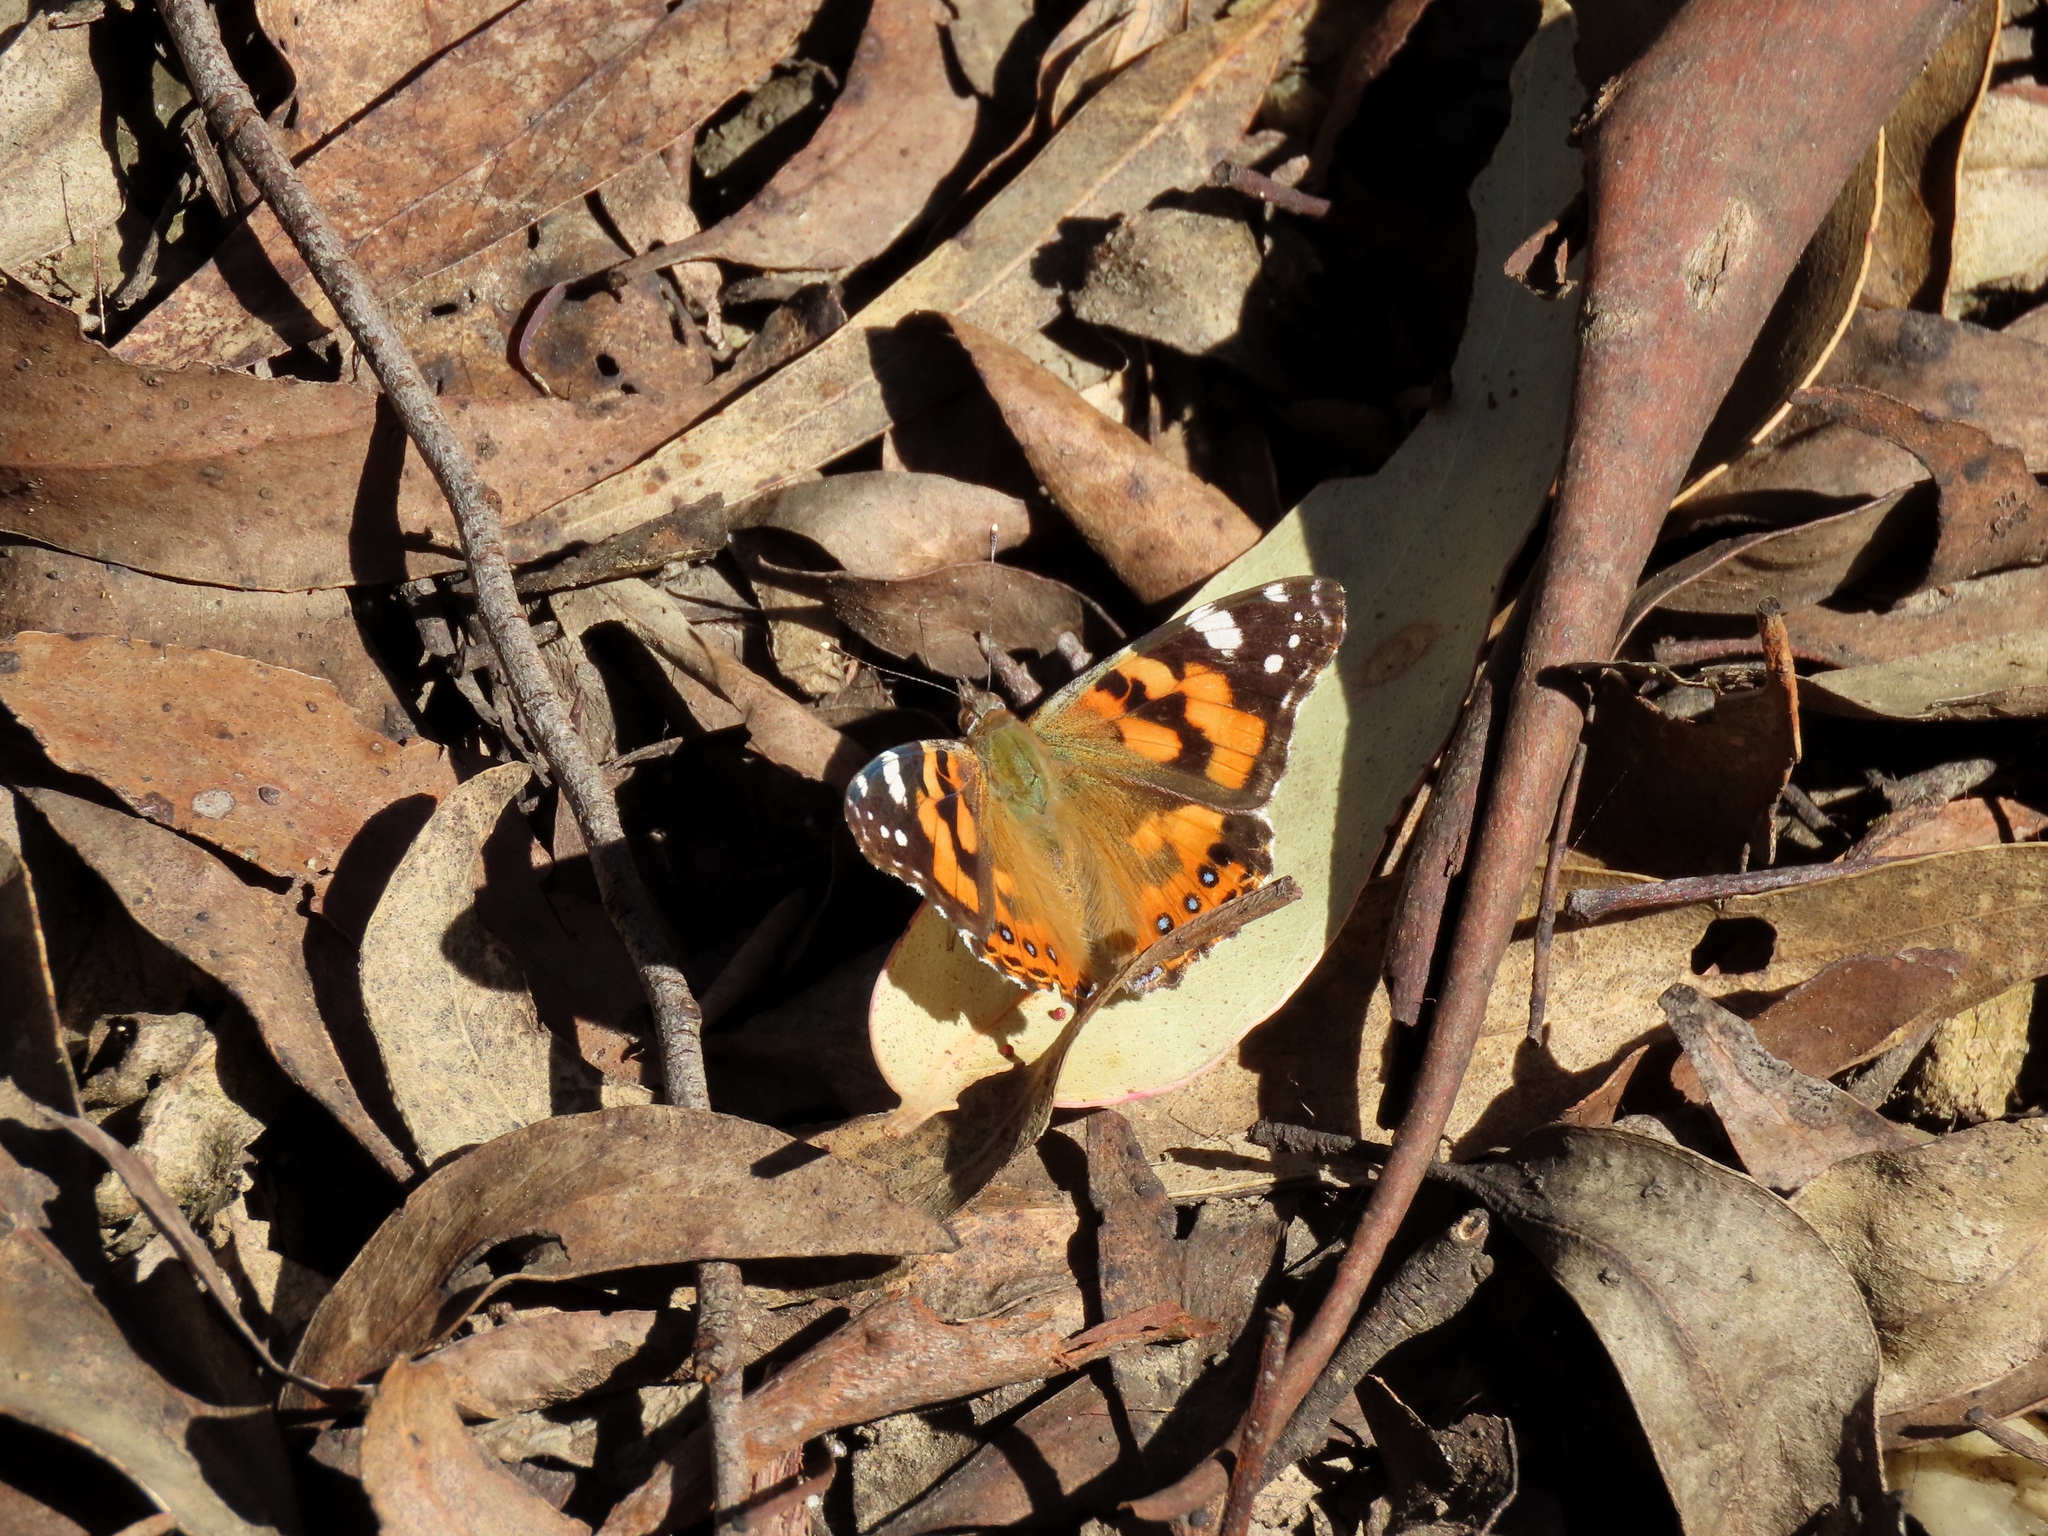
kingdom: Animalia
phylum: Arthropoda
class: Insecta
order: Lepidoptera
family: Nymphalidae
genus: Vanessa
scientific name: Vanessa kershawi
